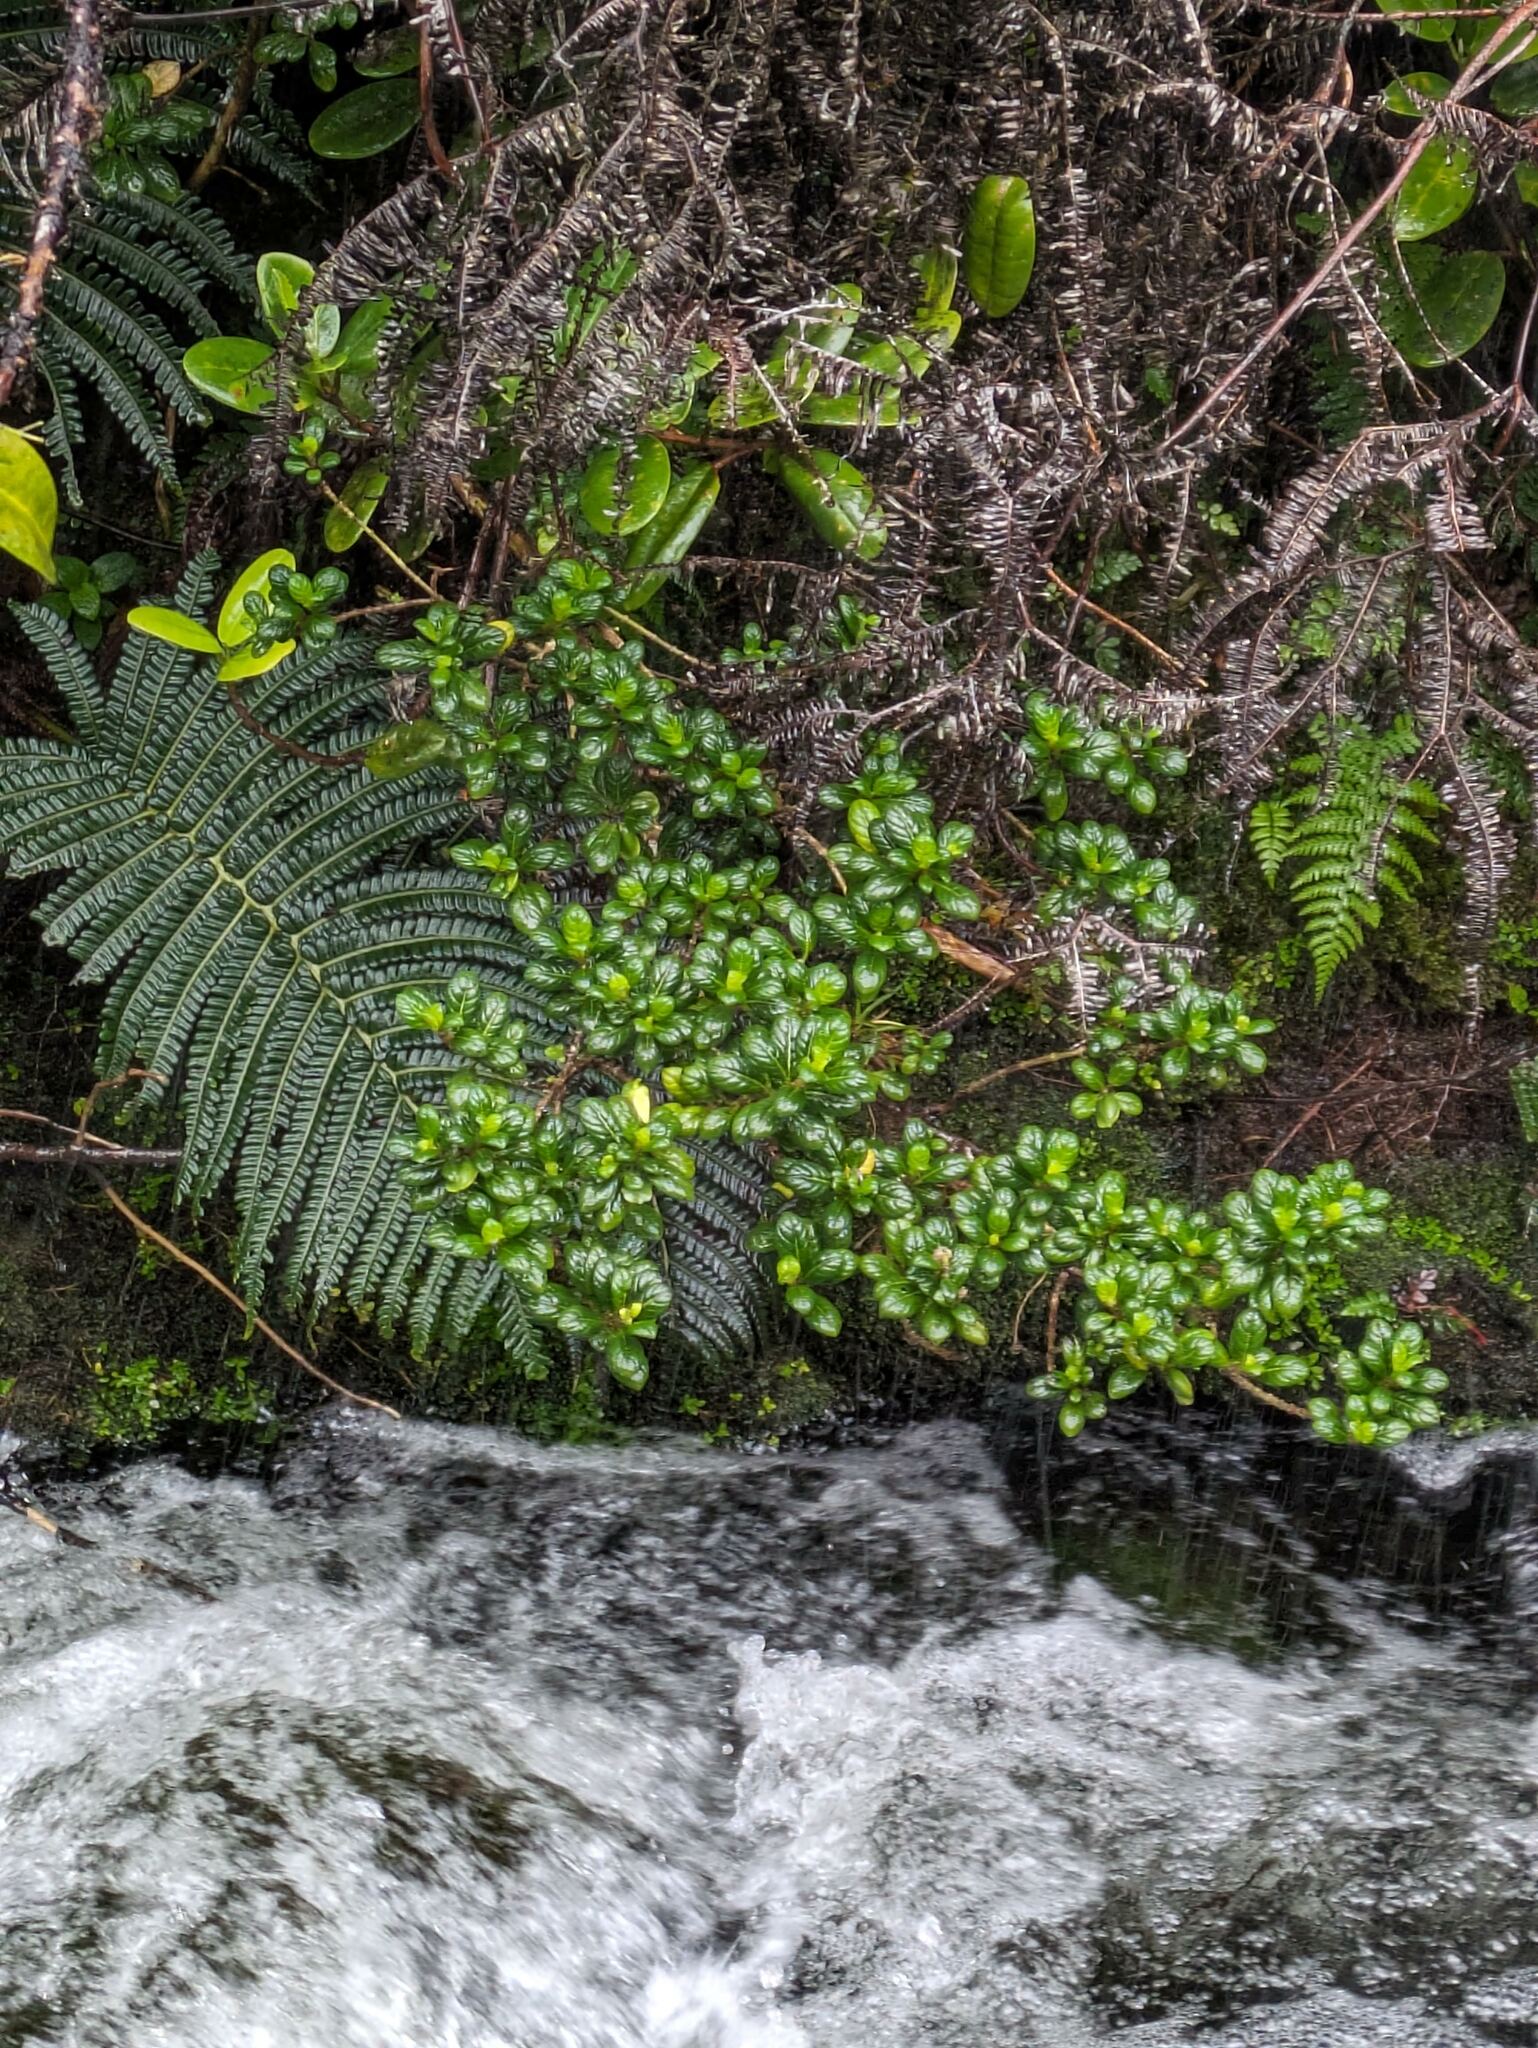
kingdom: Plantae
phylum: Tracheophyta
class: Magnoliopsida
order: Gentianales
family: Loganiaceae
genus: Geniostoma
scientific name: Geniostoma waialealae
